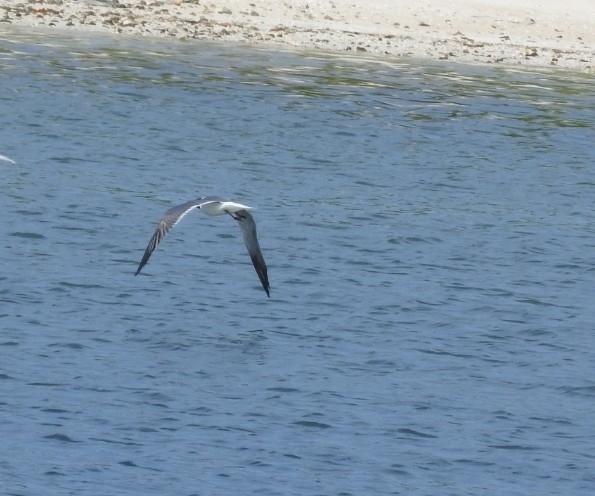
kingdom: Animalia
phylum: Chordata
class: Aves
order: Charadriiformes
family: Laridae
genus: Leucophaeus
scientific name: Leucophaeus atricilla
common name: Laughing gull
